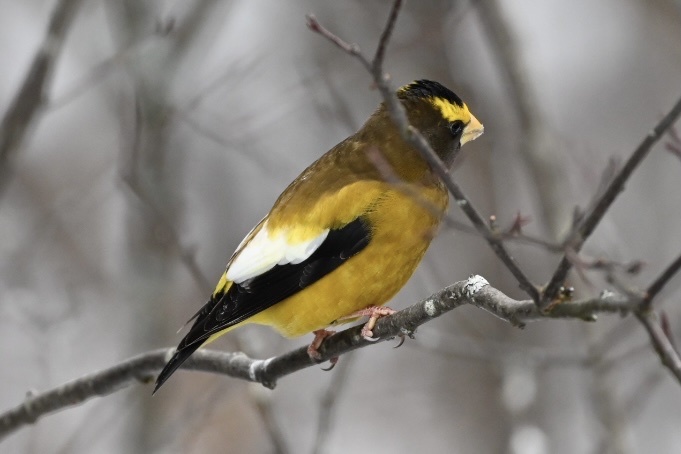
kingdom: Animalia
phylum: Chordata
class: Aves
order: Passeriformes
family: Fringillidae
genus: Hesperiphona
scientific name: Hesperiphona vespertina
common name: Evening grosbeak
